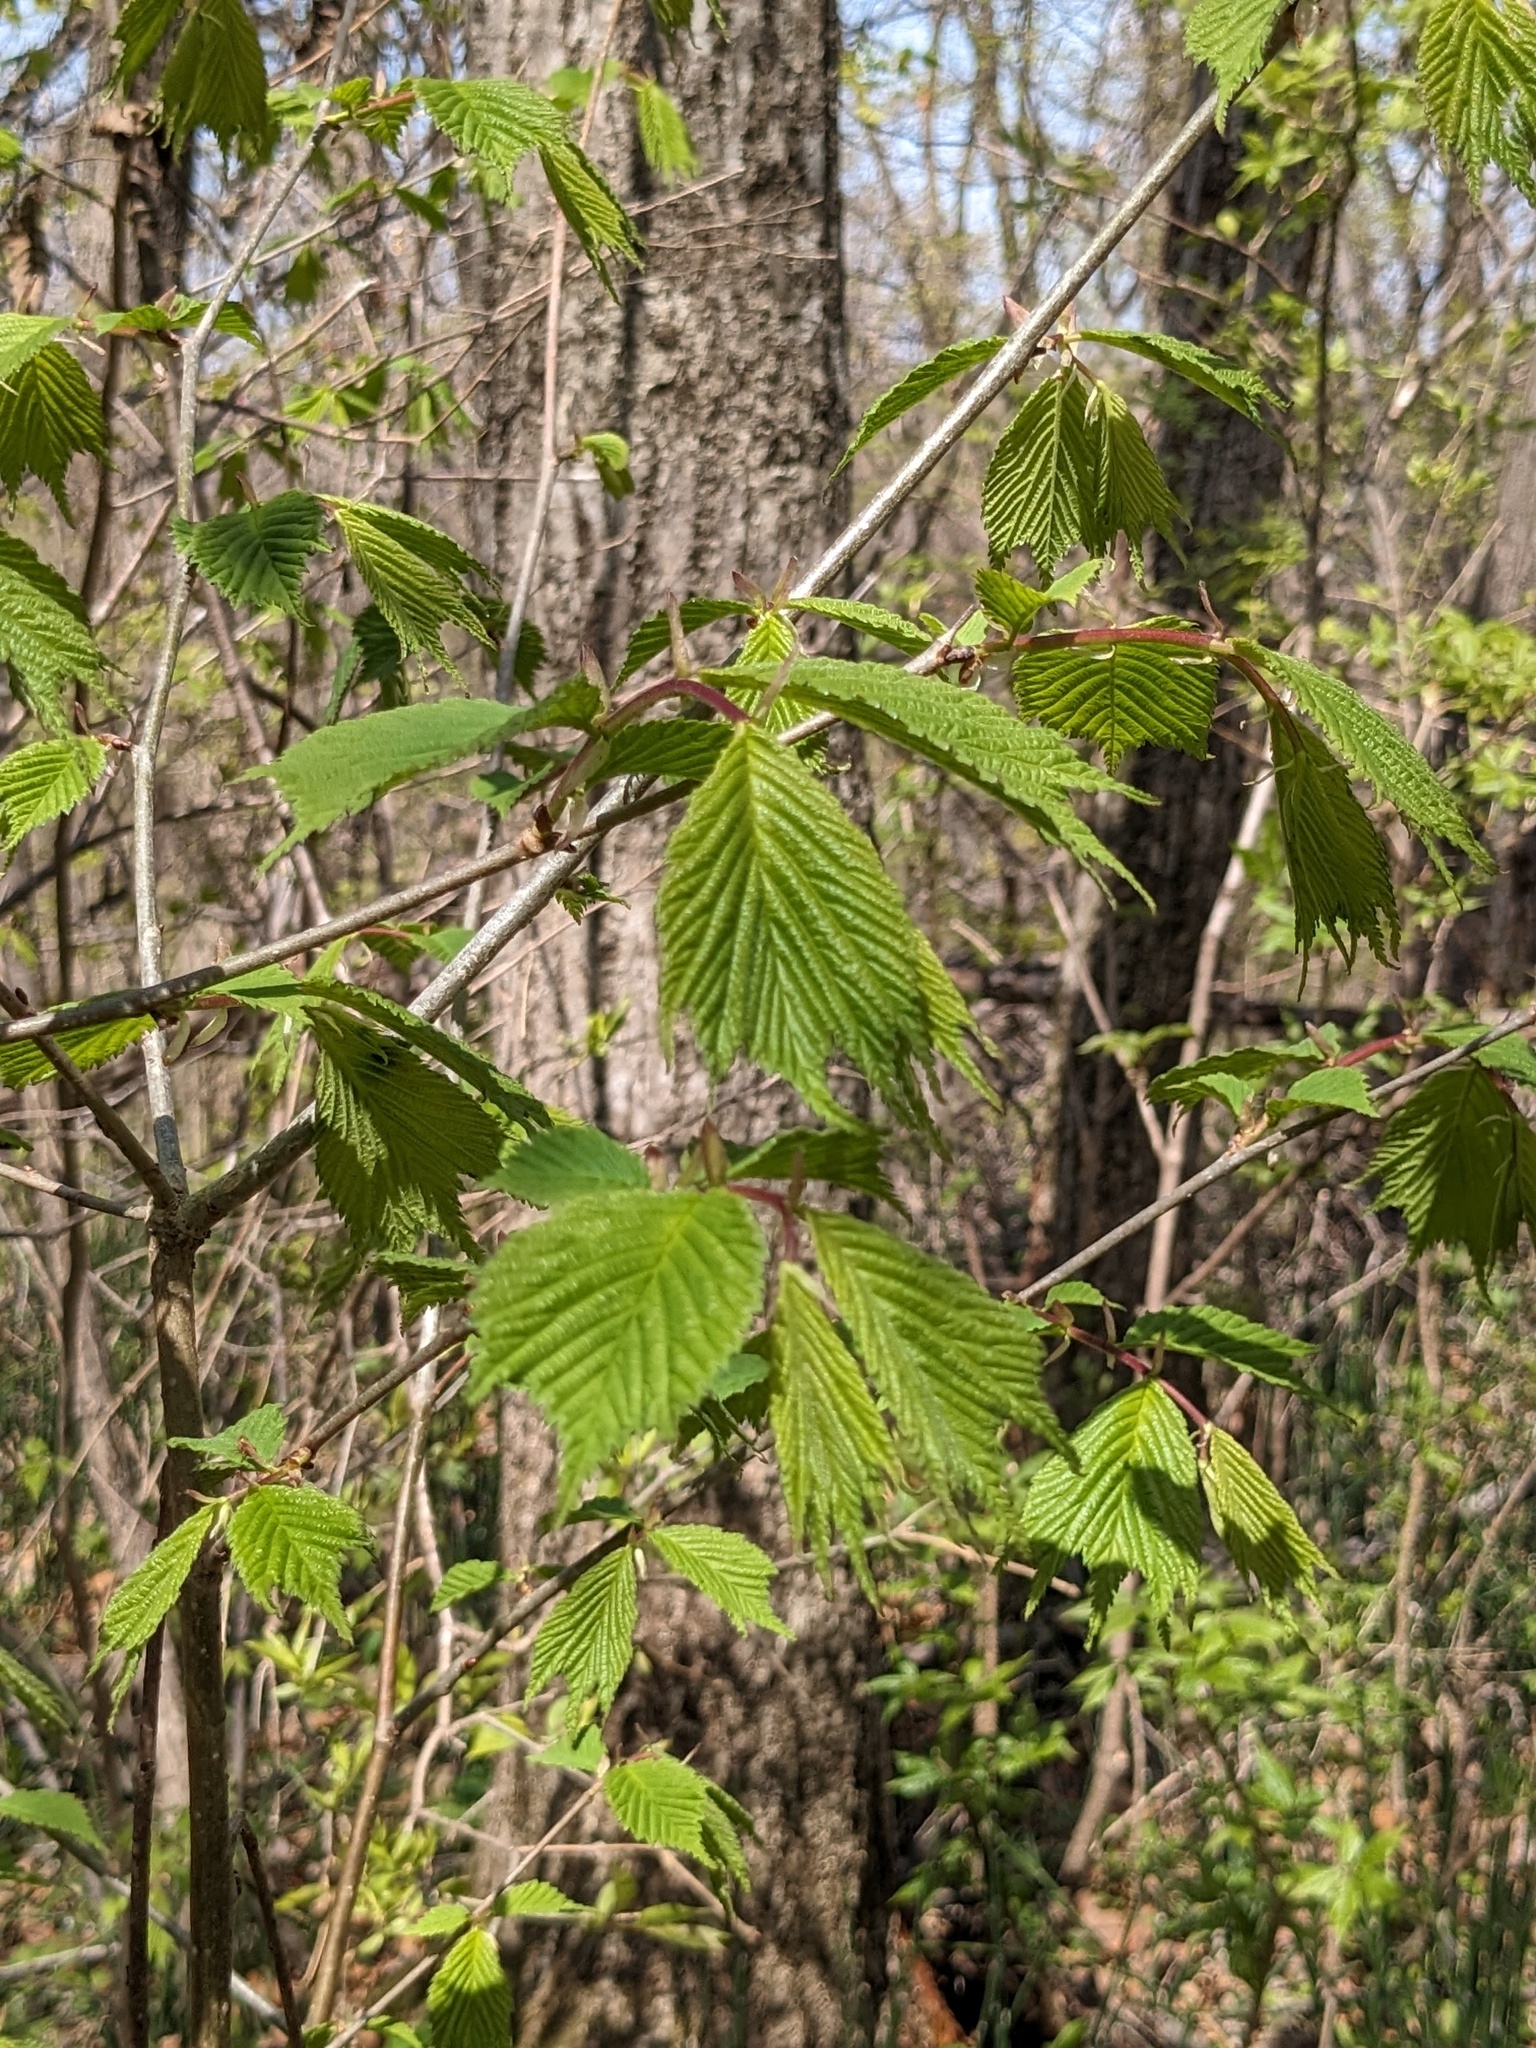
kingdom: Plantae
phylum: Tracheophyta
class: Magnoliopsida
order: Rosales
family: Ulmaceae
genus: Ulmus
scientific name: Ulmus laciniata
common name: Japanese elm
